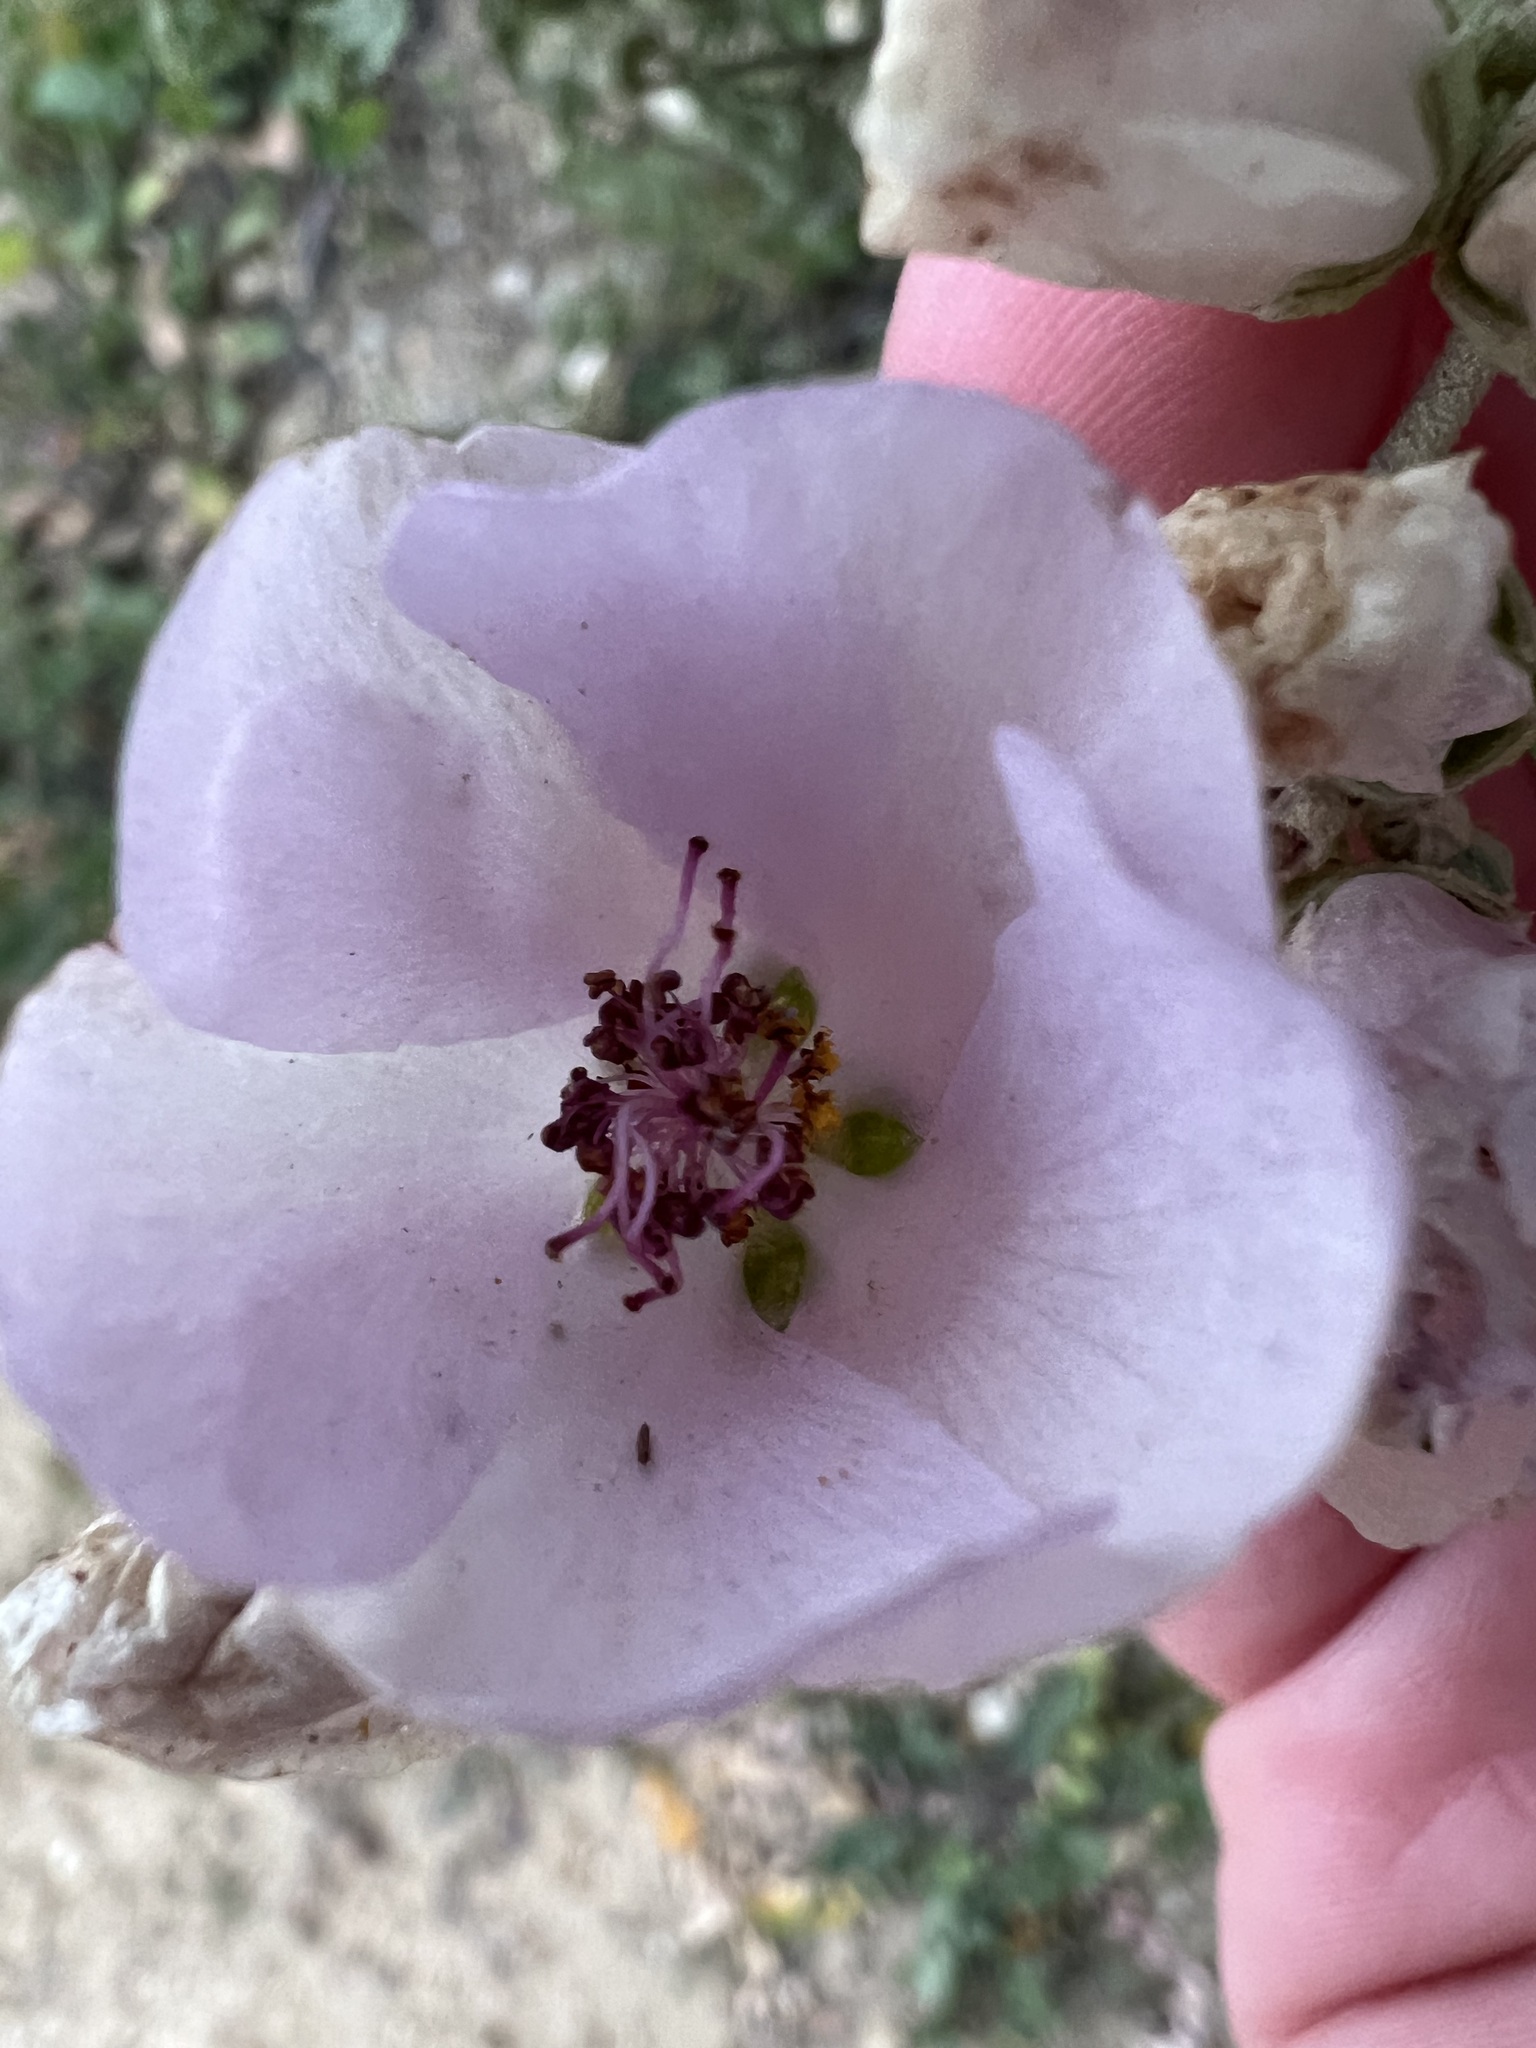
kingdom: Plantae
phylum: Tracheophyta
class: Magnoliopsida
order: Malvales
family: Malvaceae
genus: Malacothamnus
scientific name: Malacothamnus fasciculatus
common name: Sant cruz island bush-mallow
